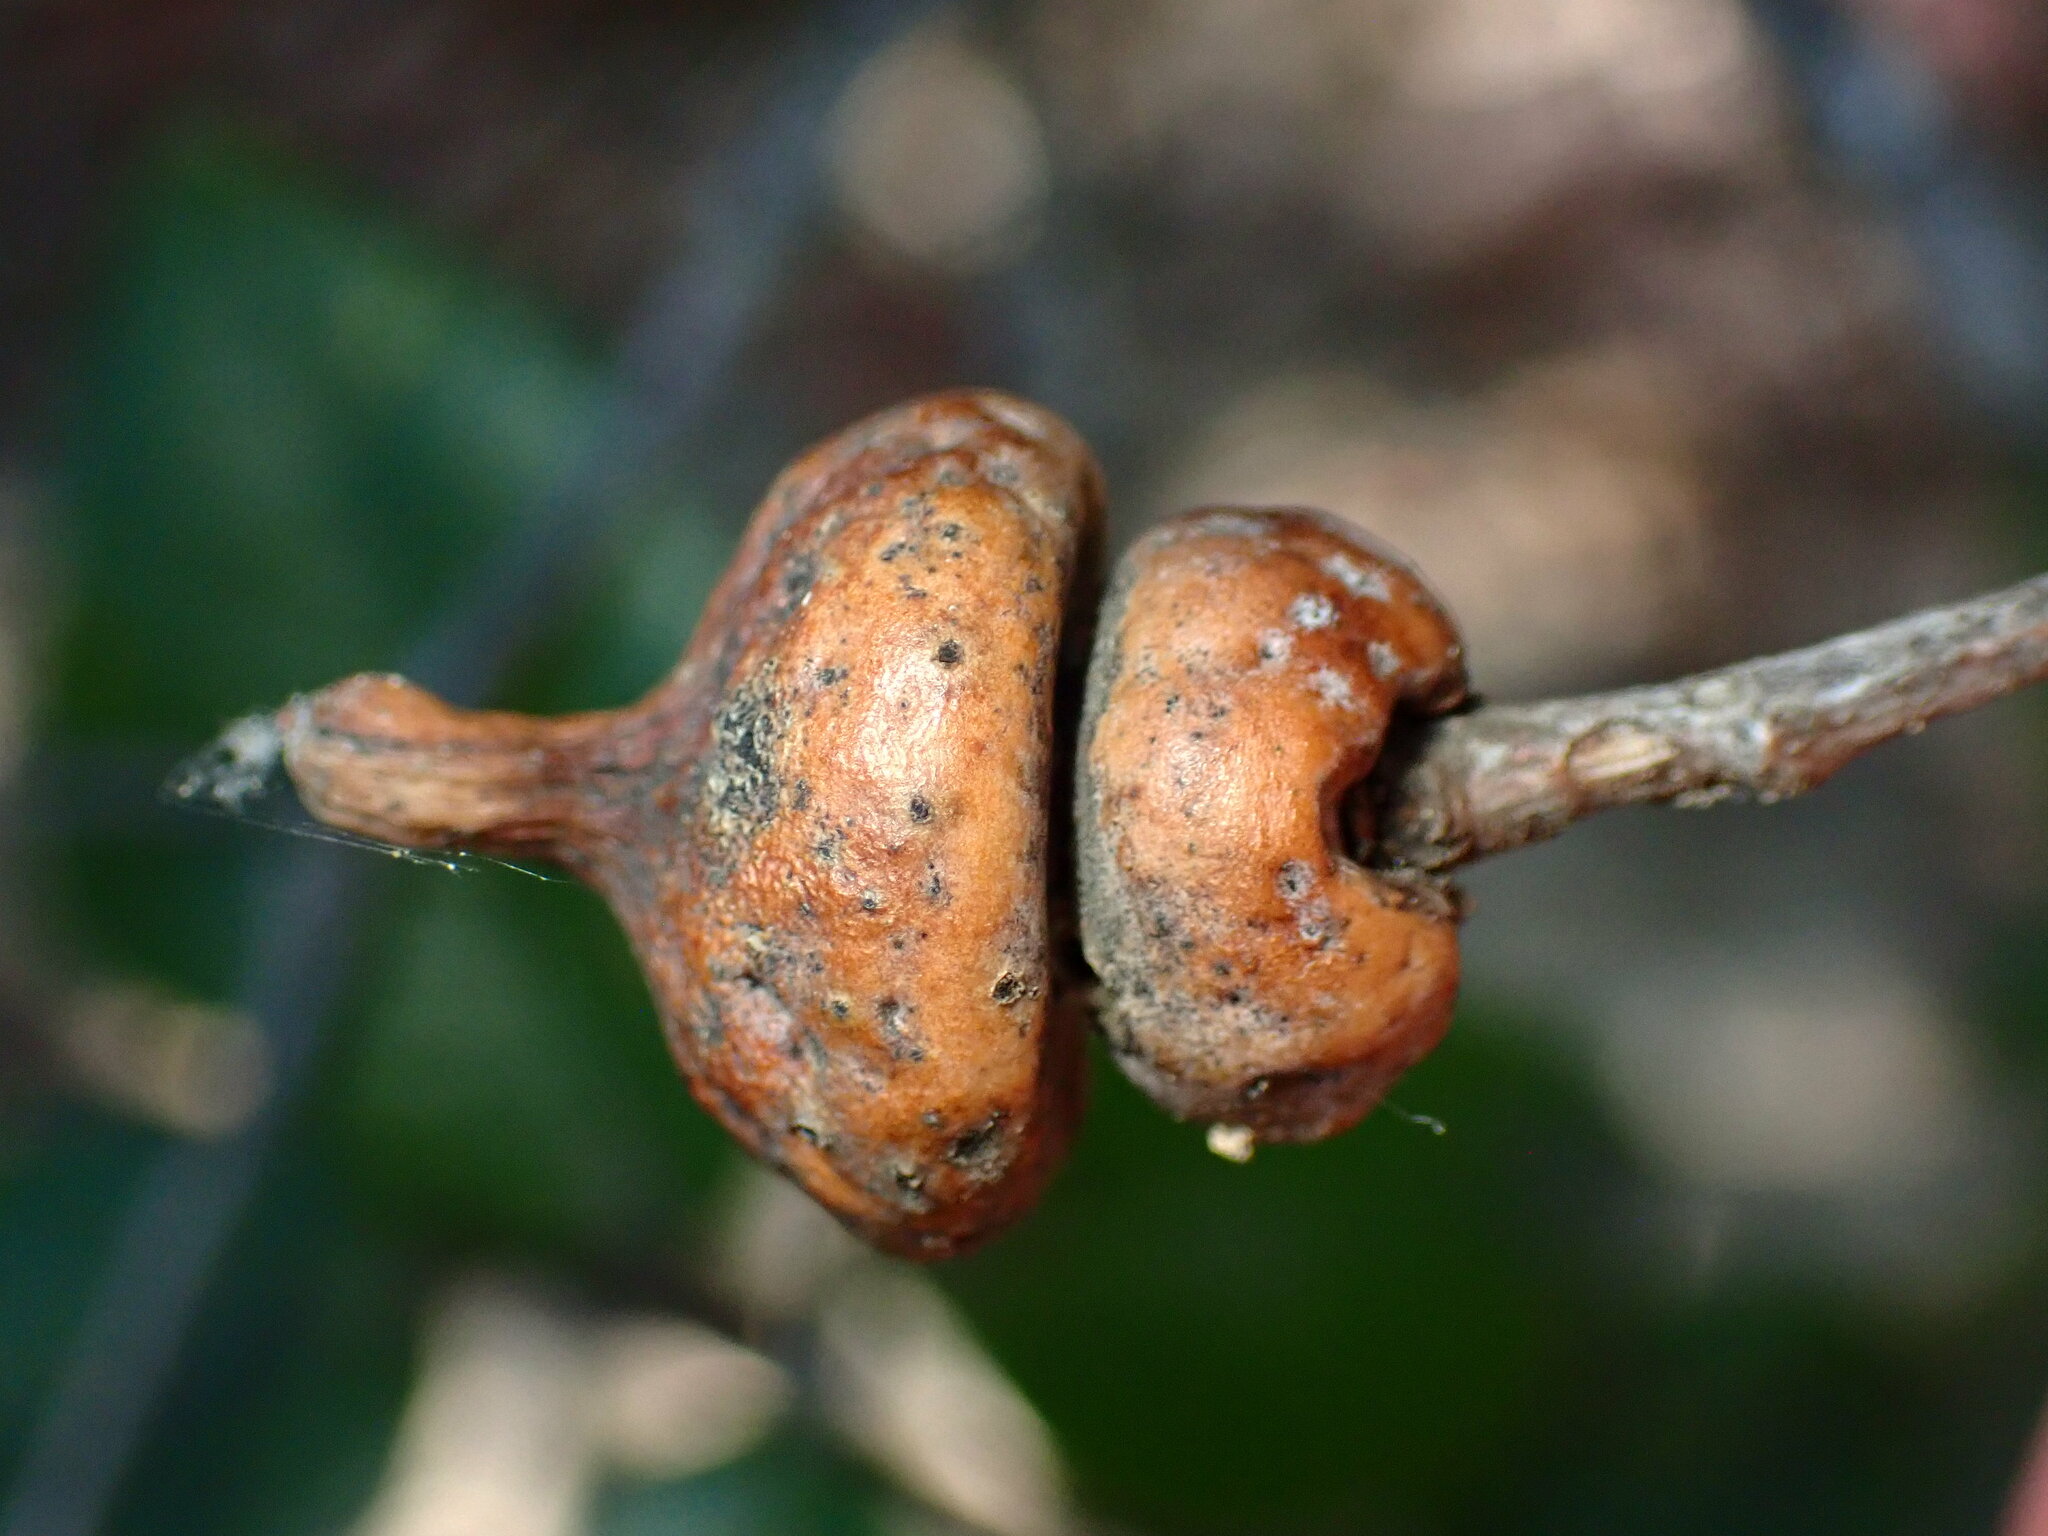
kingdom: Animalia
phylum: Arthropoda
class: Insecta
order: Hymenoptera
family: Cynipidae
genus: Heteroecus
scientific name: Heteroecus
